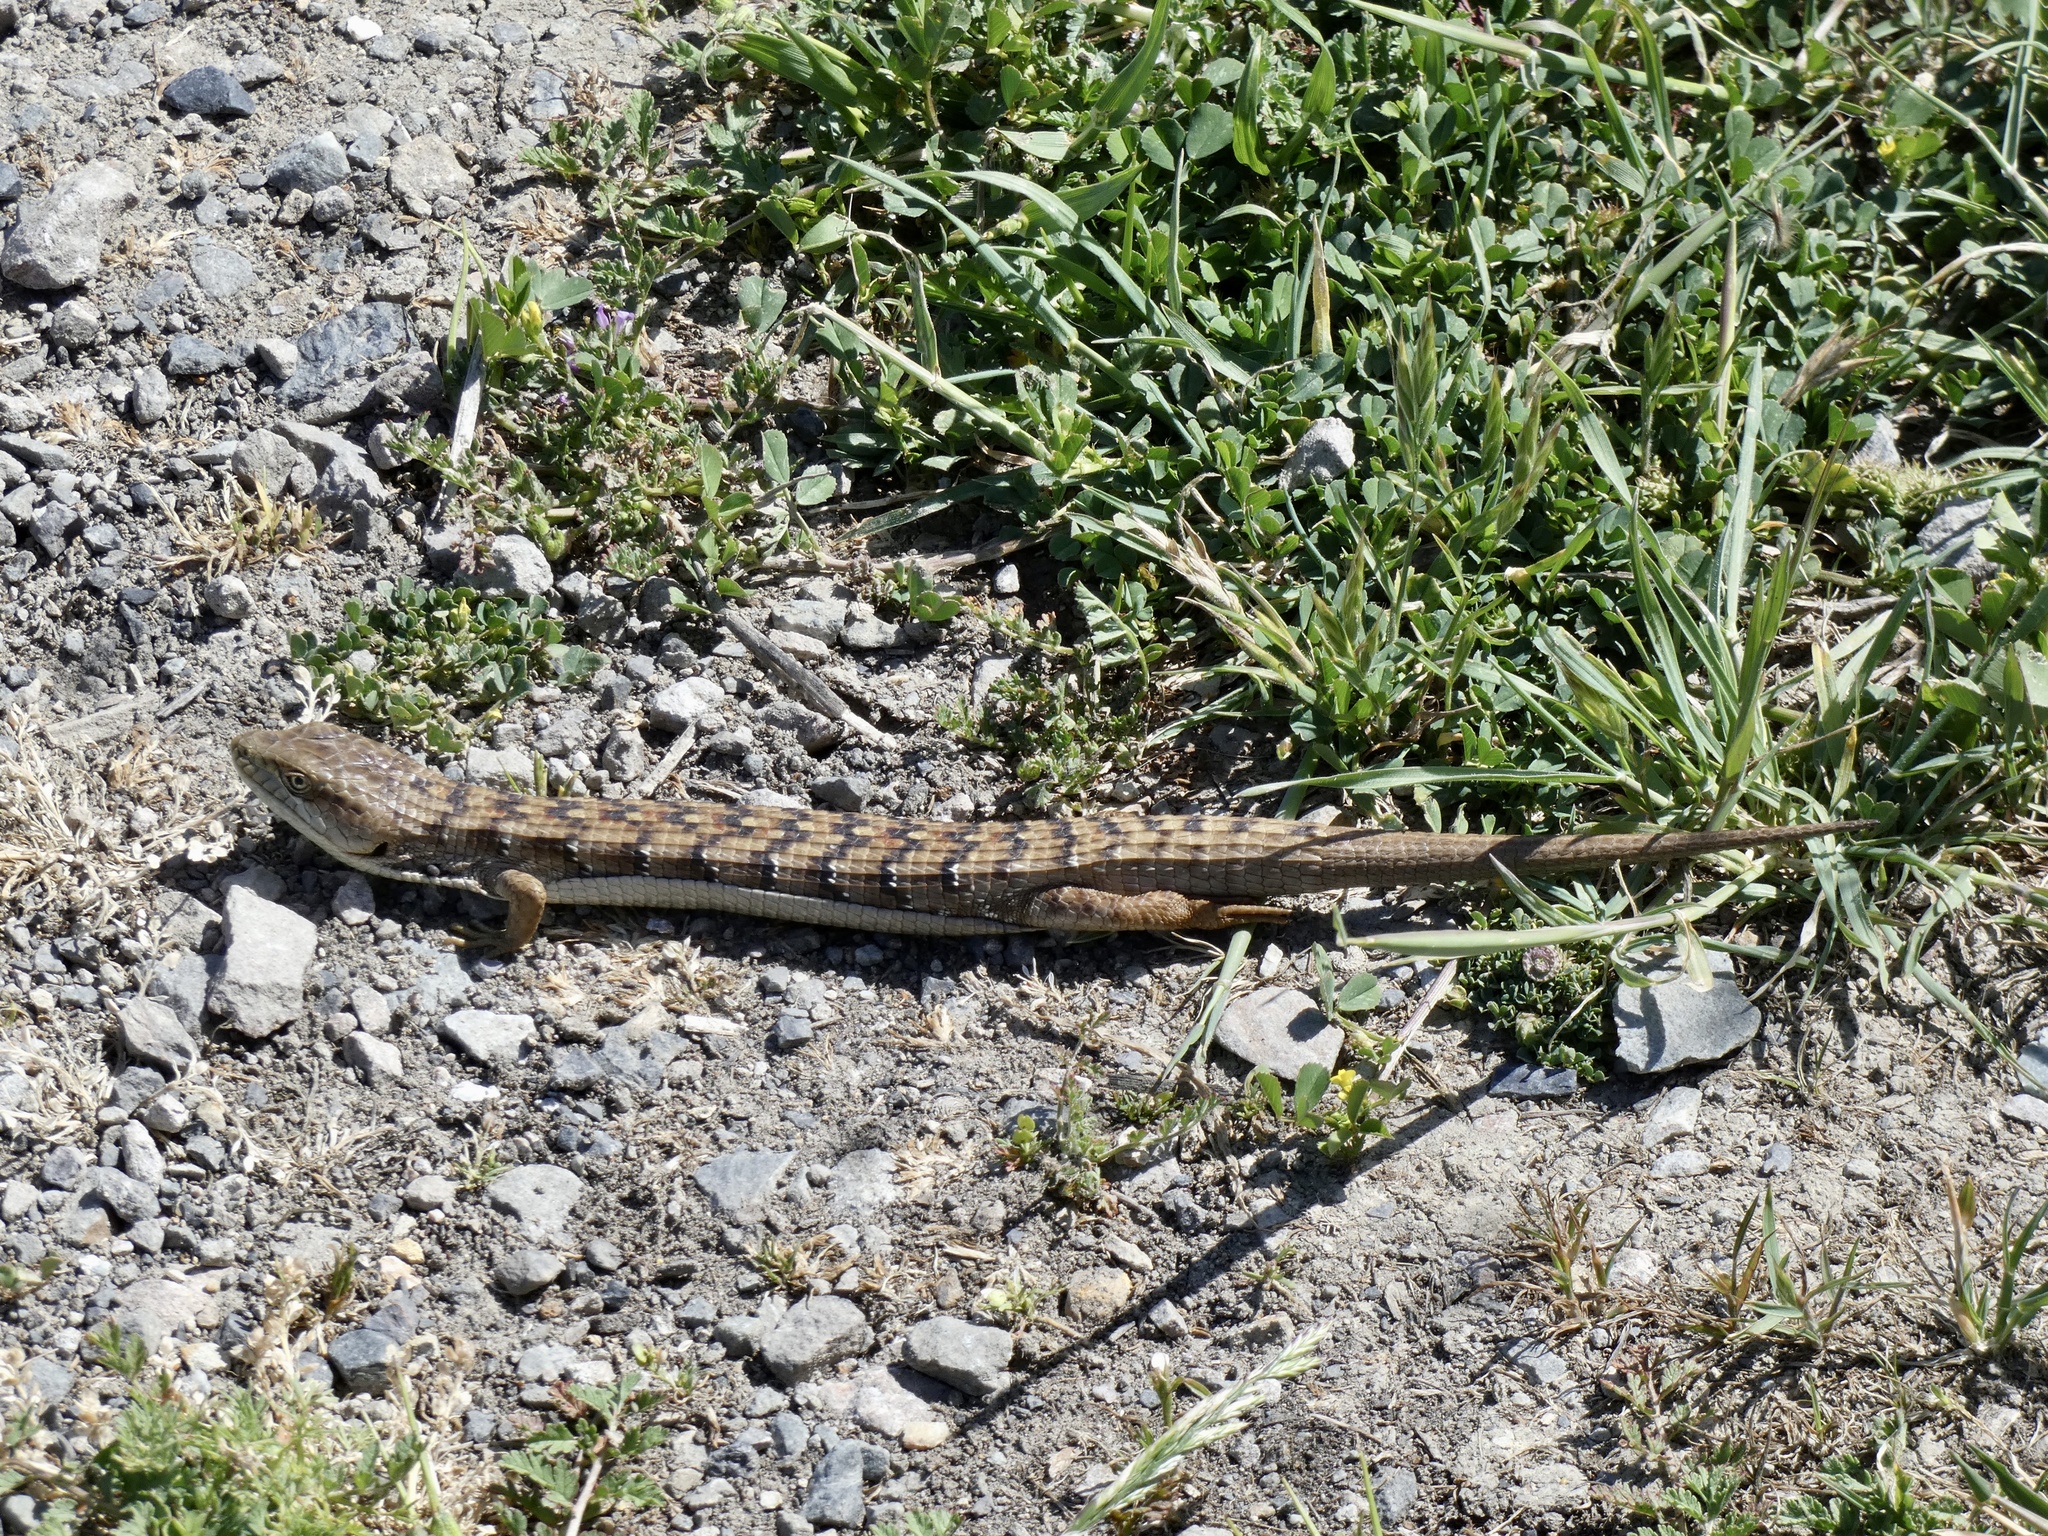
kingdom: Animalia
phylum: Chordata
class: Squamata
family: Anguidae
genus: Elgaria
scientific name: Elgaria multicarinata
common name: Southern alligator lizard
